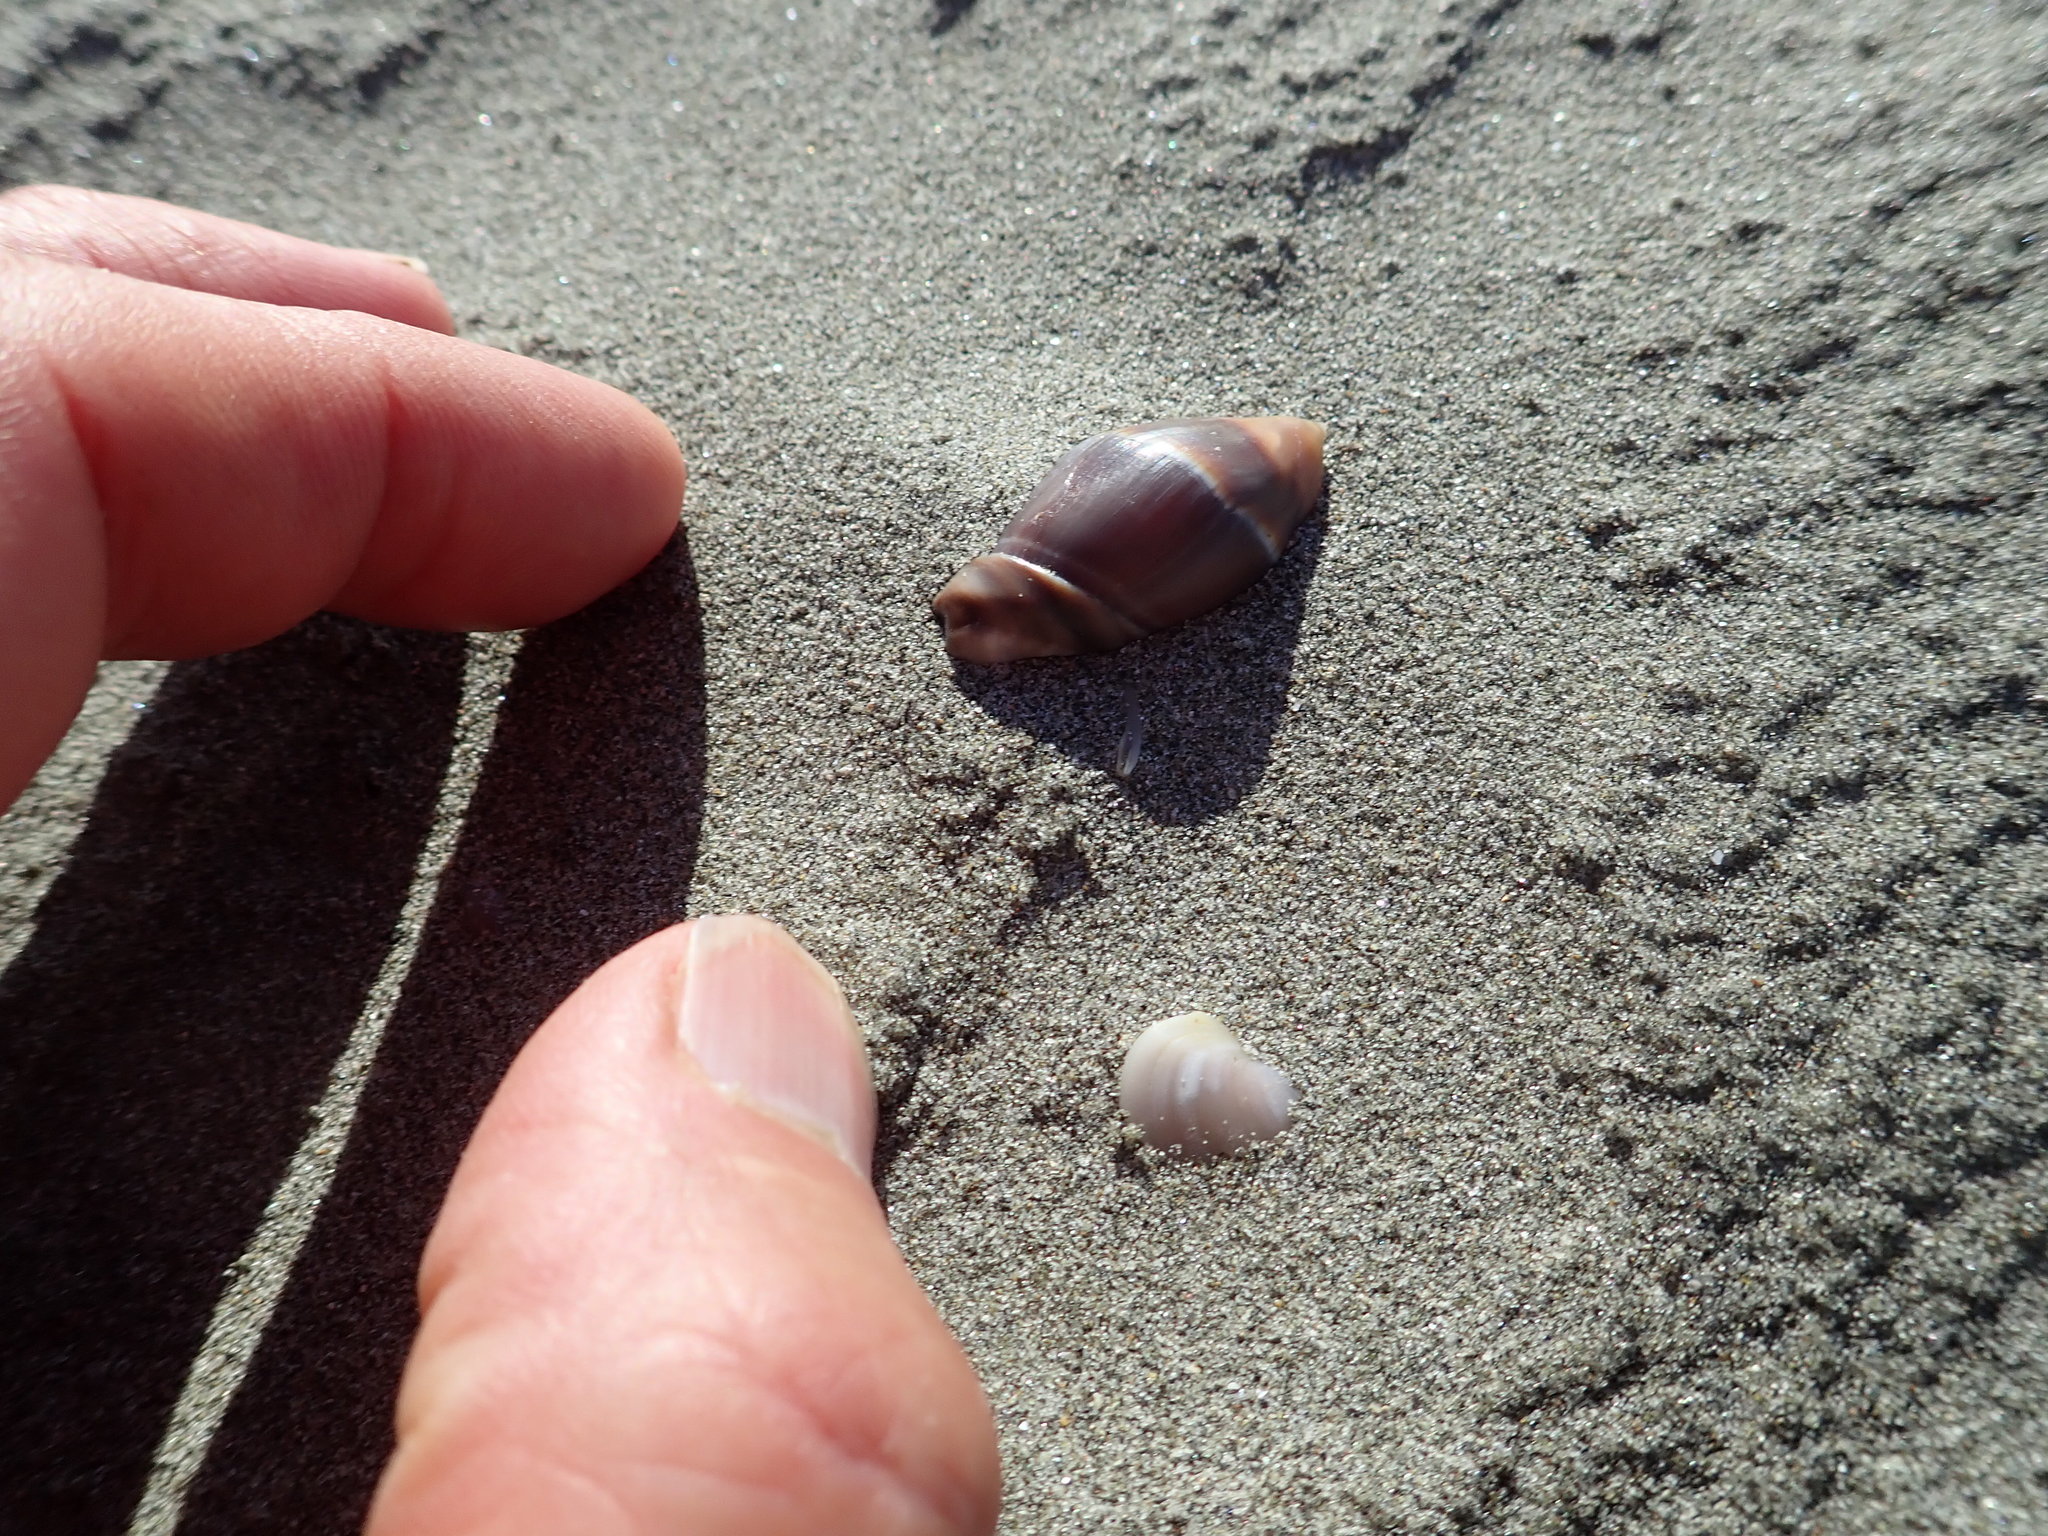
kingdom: Animalia
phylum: Mollusca
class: Gastropoda
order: Neogastropoda
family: Ancillariidae
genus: Amalda
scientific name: Amalda australis
